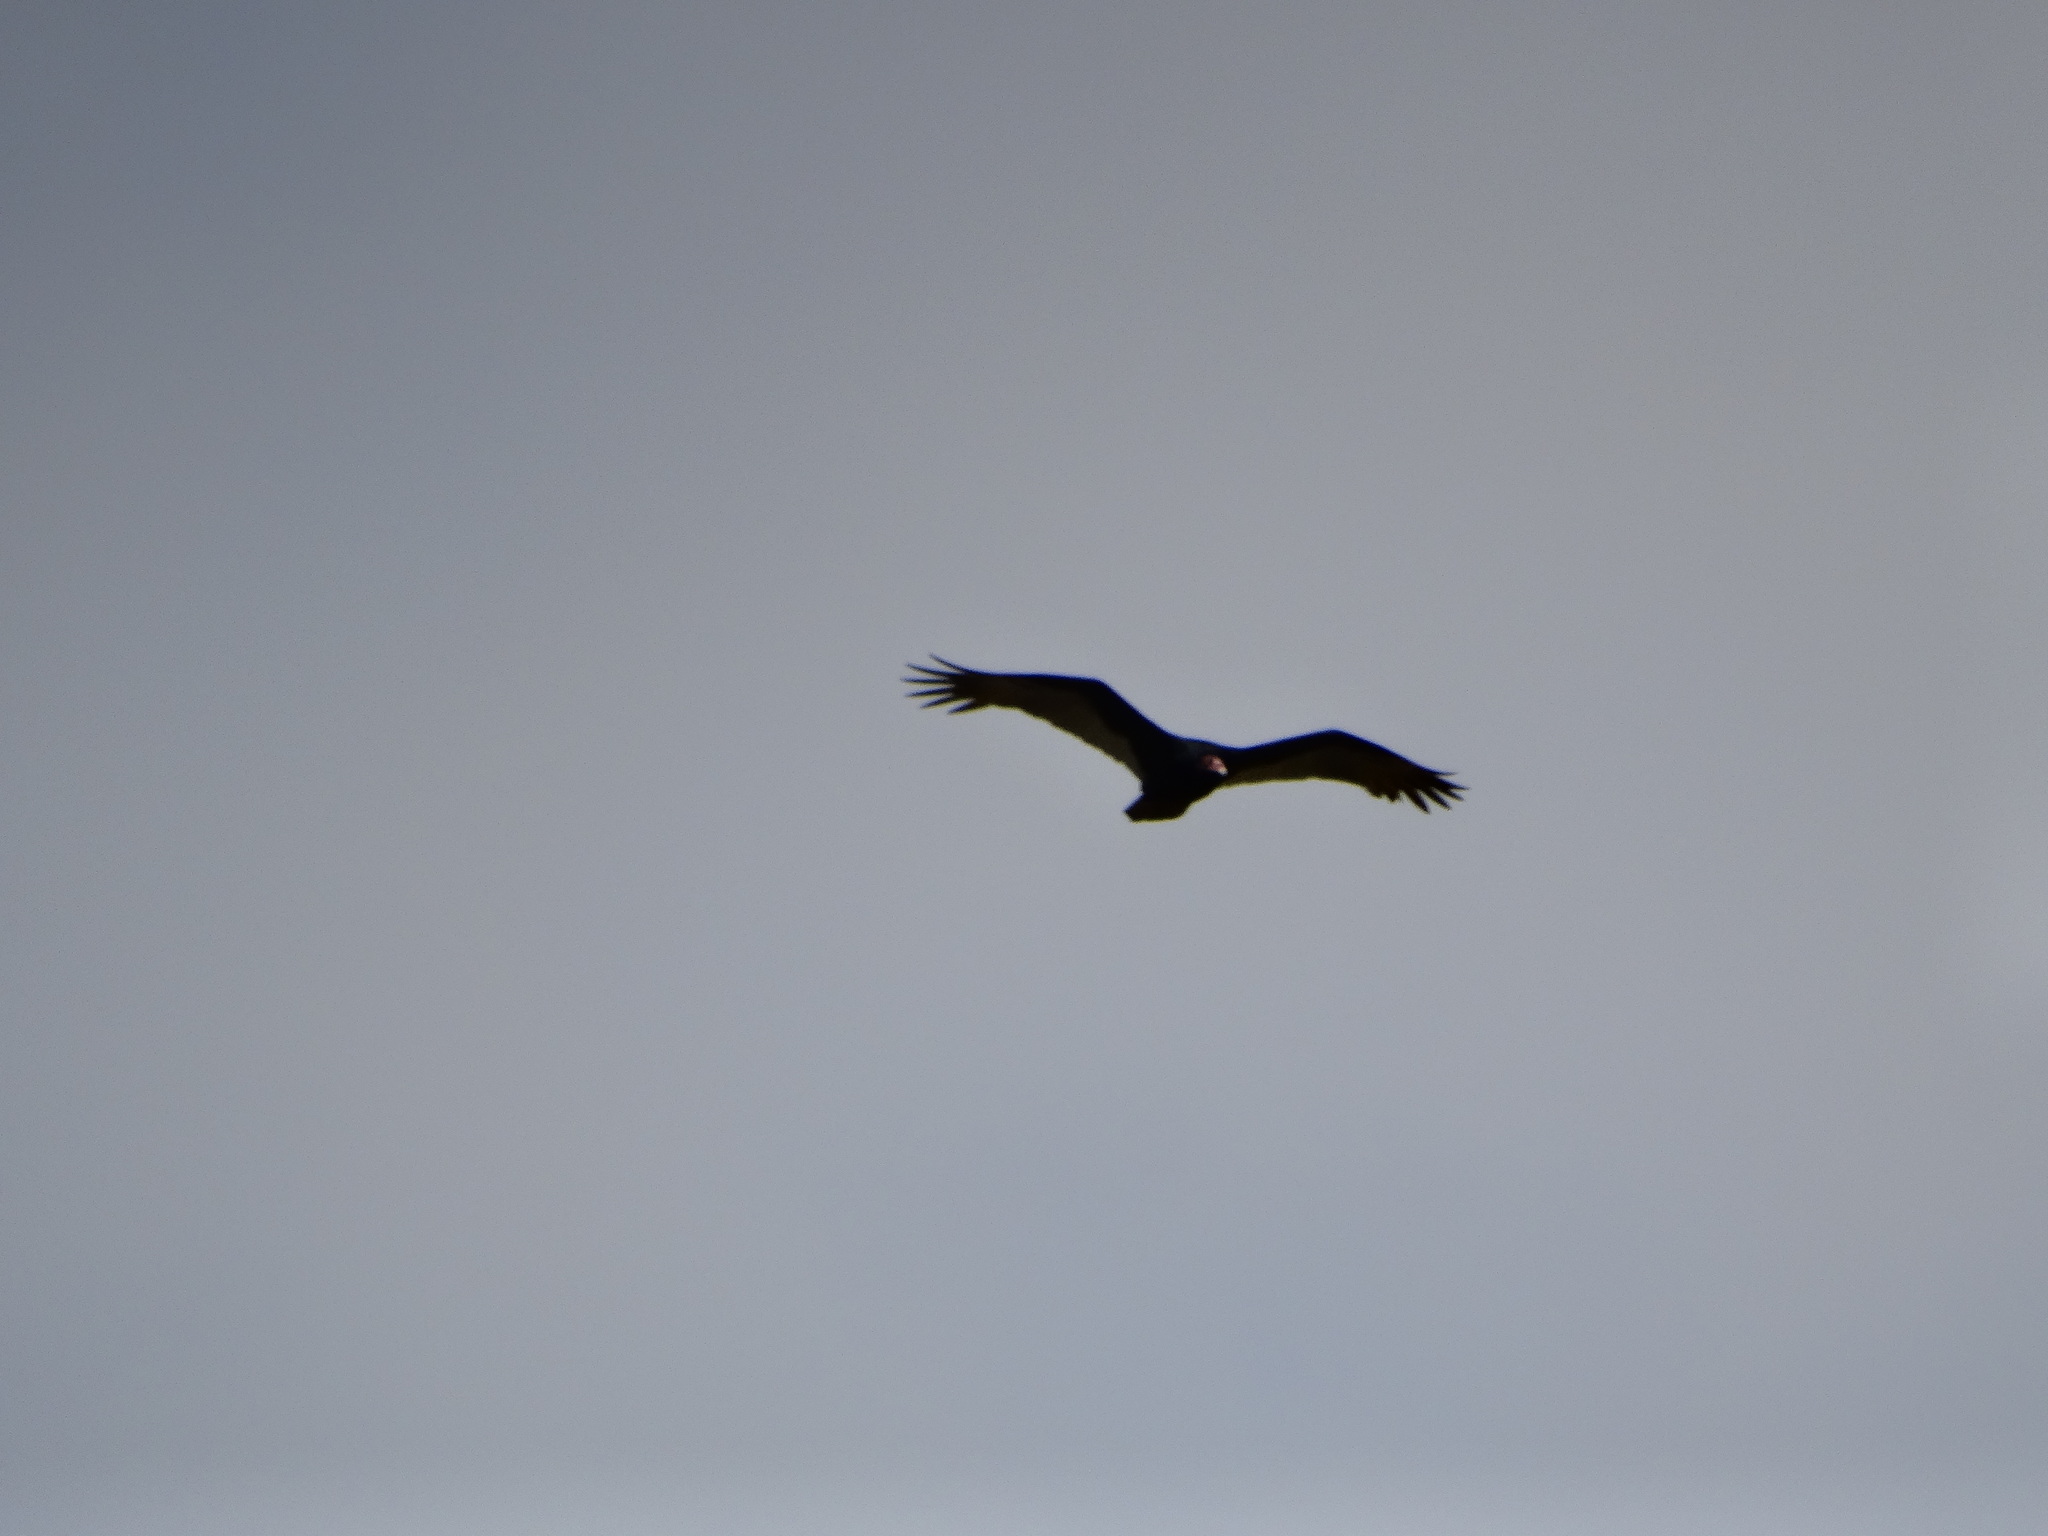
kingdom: Animalia
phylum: Chordata
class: Aves
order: Accipitriformes
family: Cathartidae
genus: Cathartes
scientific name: Cathartes aura
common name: Turkey vulture
